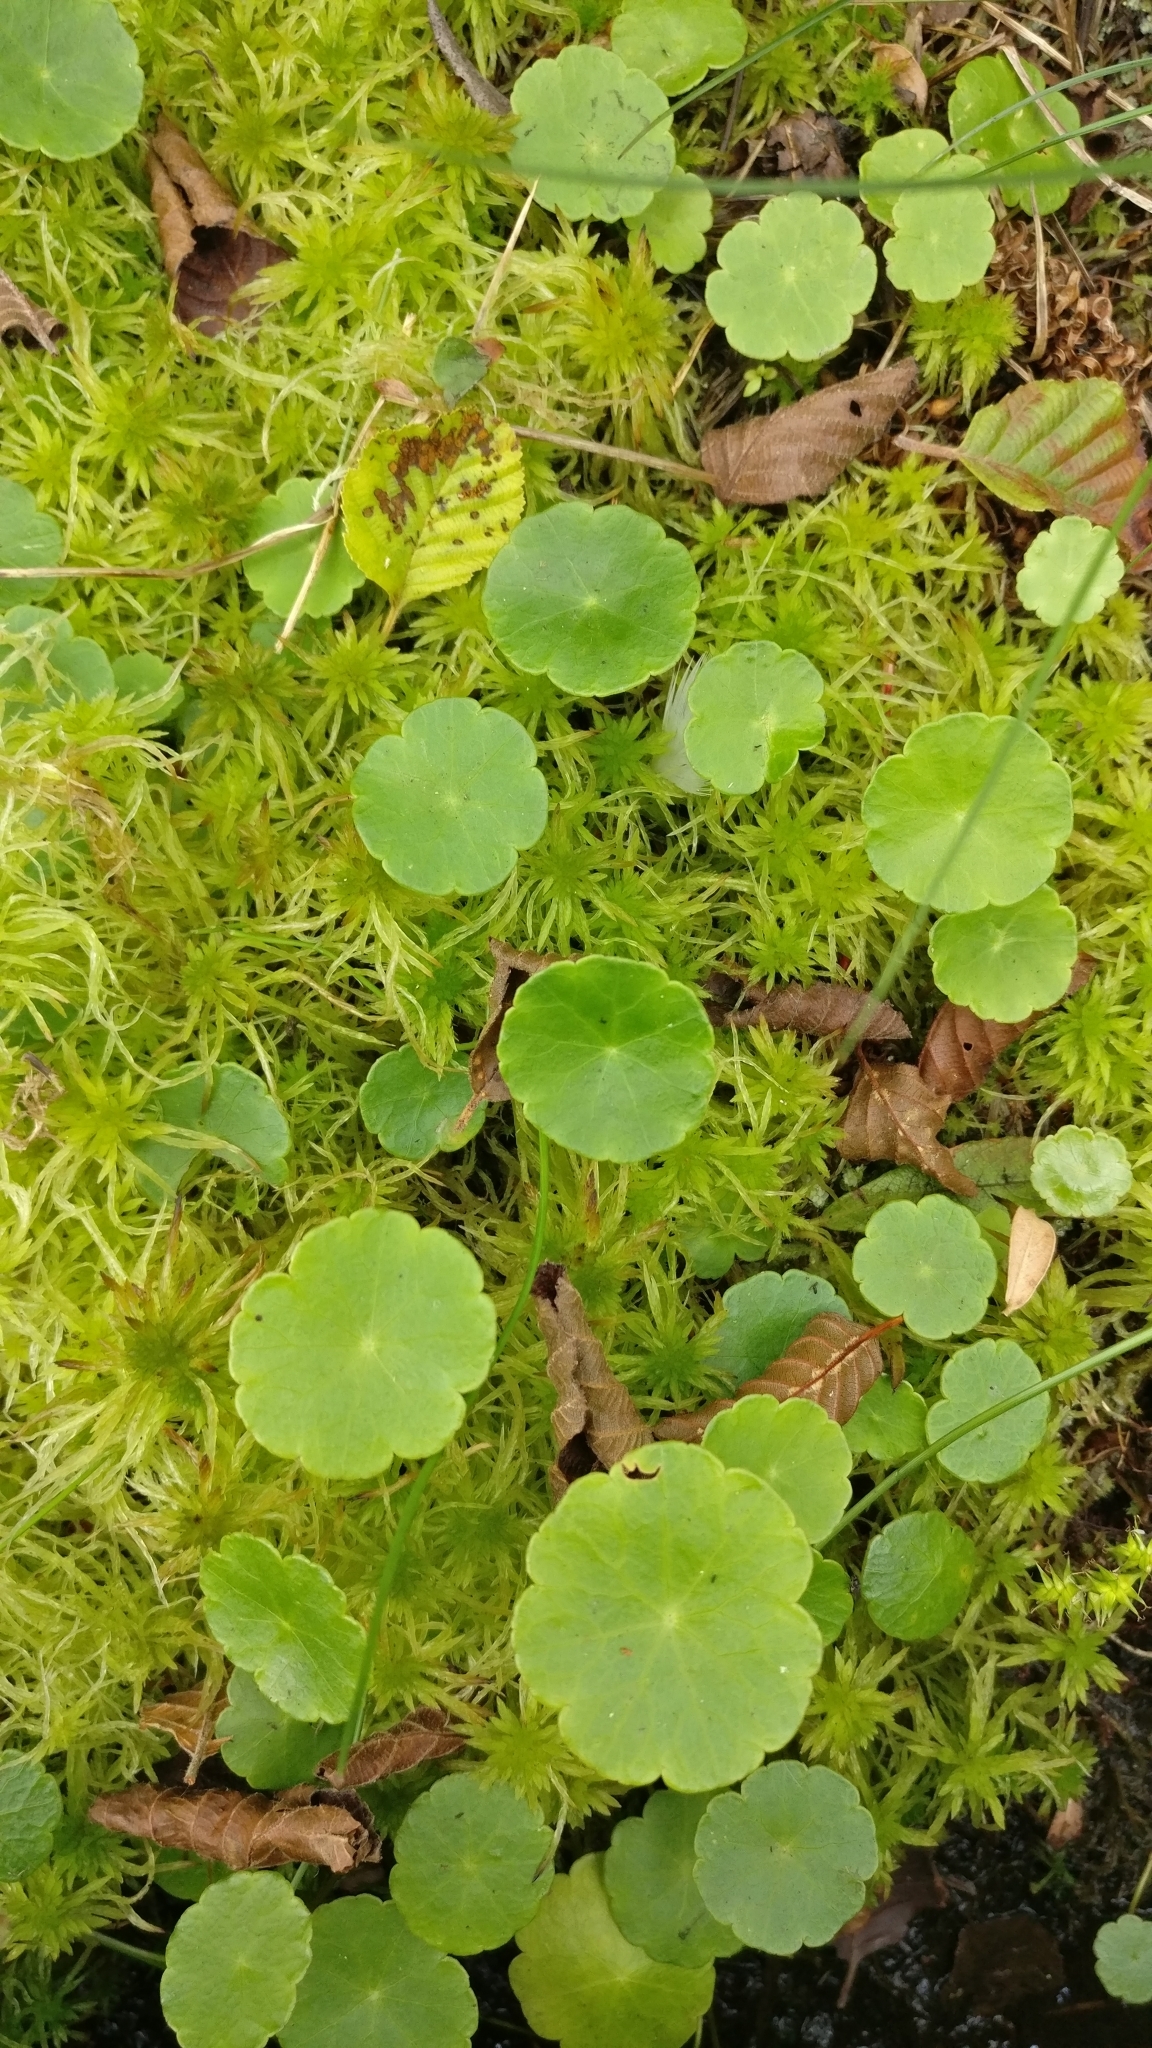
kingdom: Plantae
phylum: Tracheophyta
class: Magnoliopsida
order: Apiales
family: Araliaceae
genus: Hydrocotyle
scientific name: Hydrocotyle vulgaris
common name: Marsh pennywort
